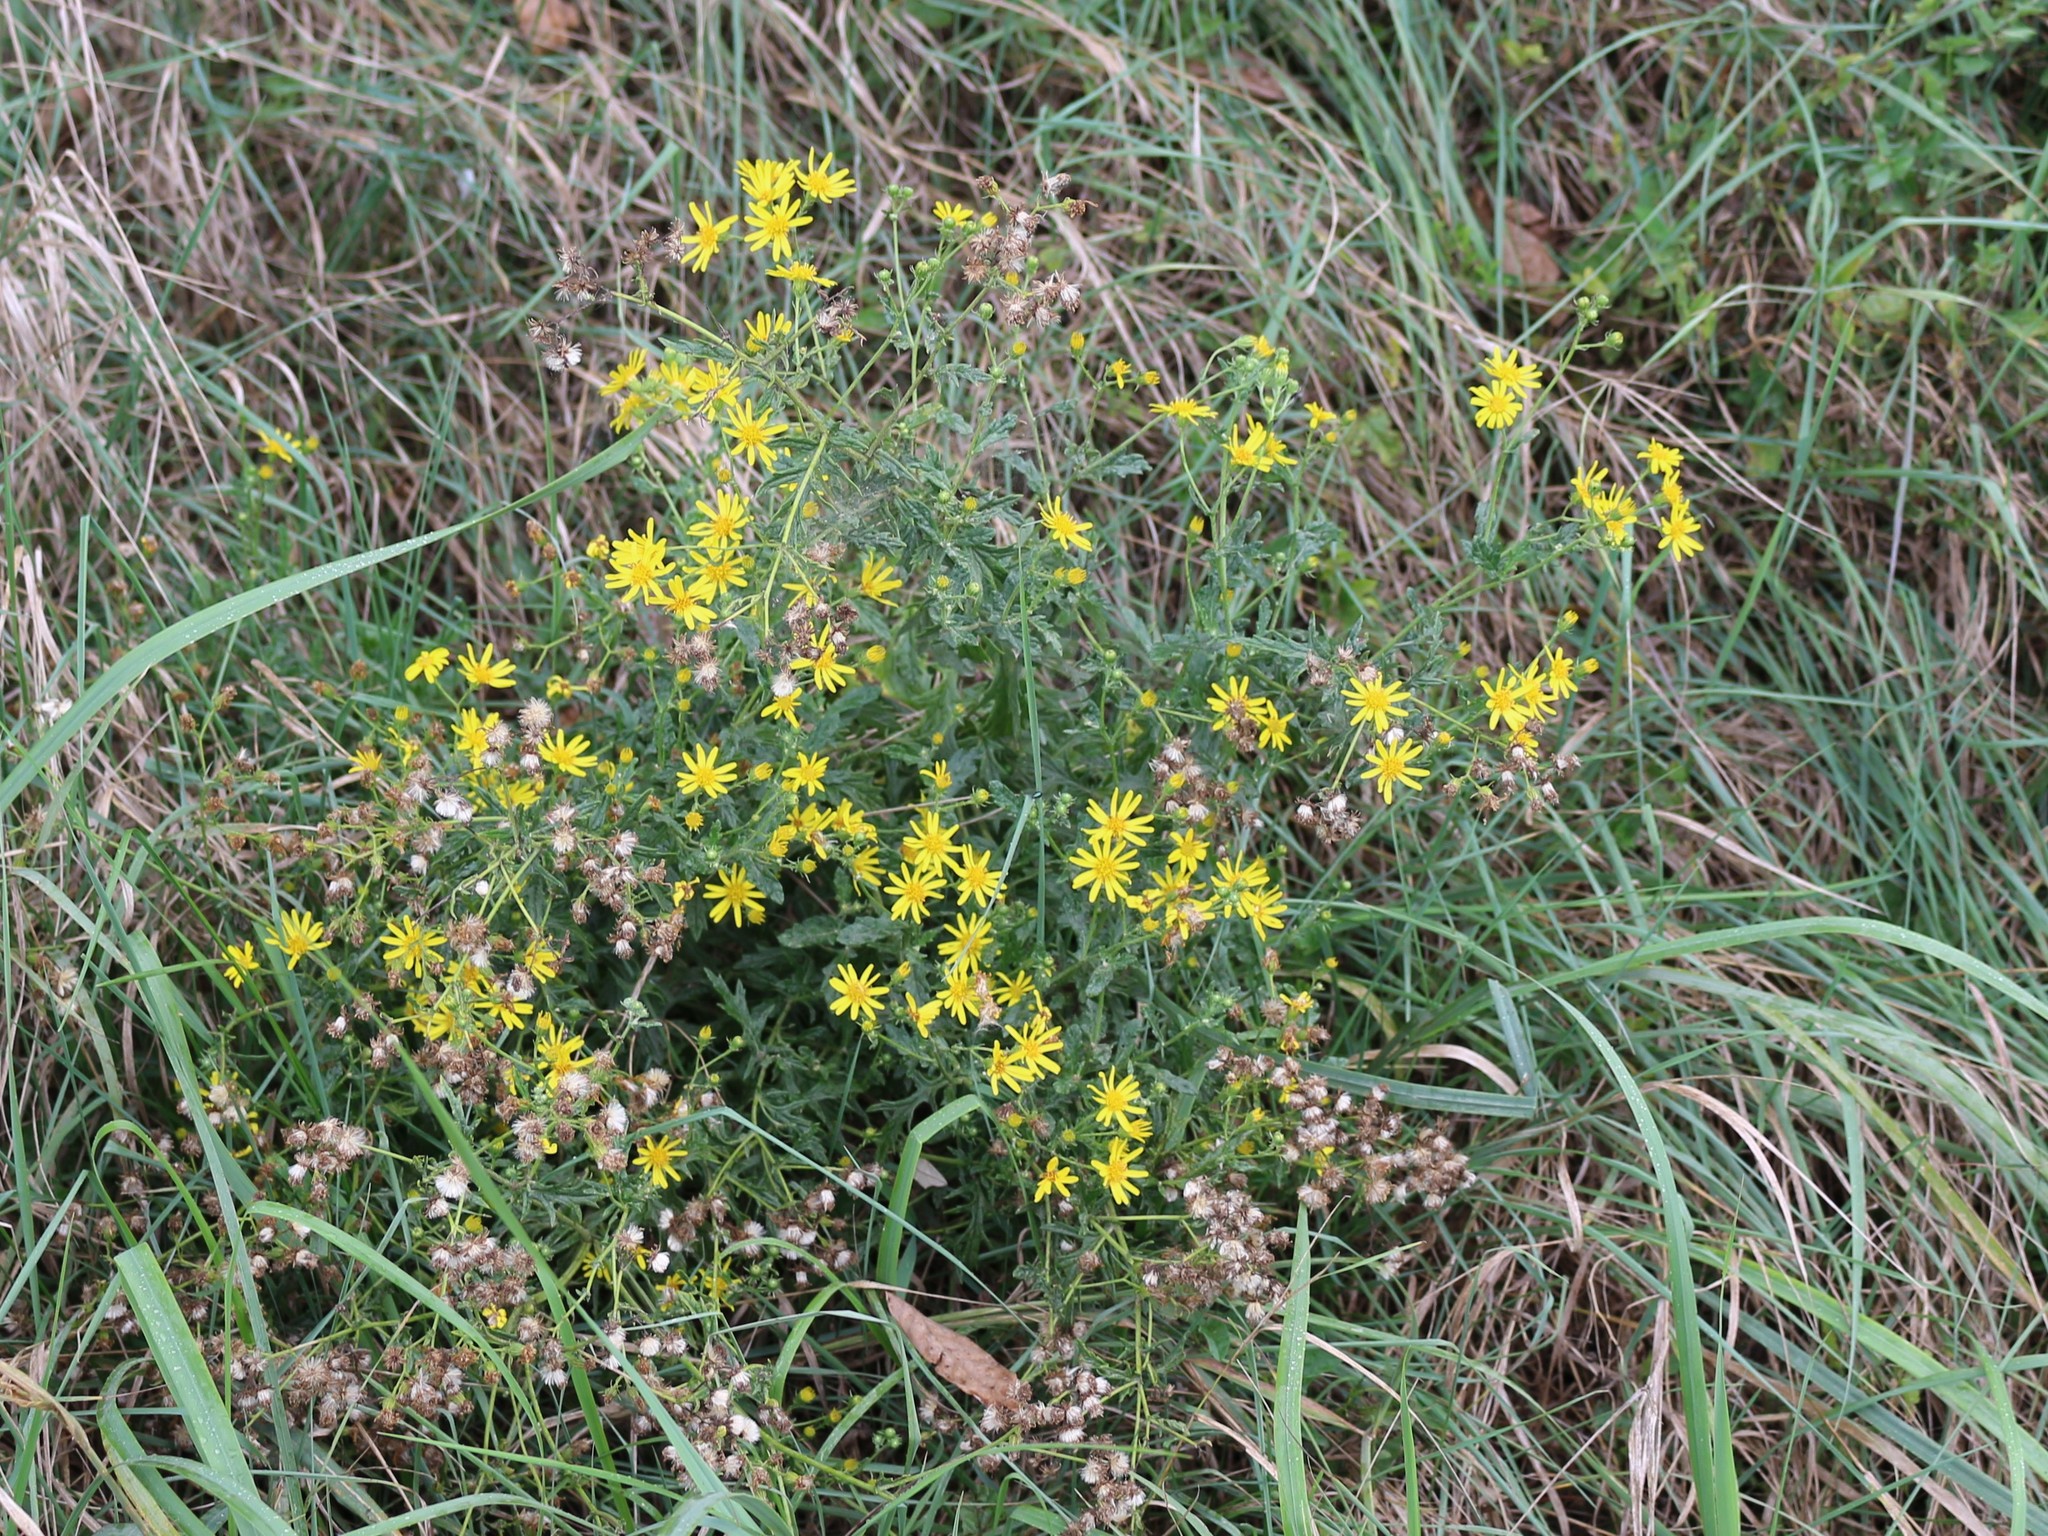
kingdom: Plantae
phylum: Tracheophyta
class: Magnoliopsida
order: Asterales
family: Asteraceae
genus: Jacobaea
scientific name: Jacobaea erucifolia
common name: Hoary ragwort
